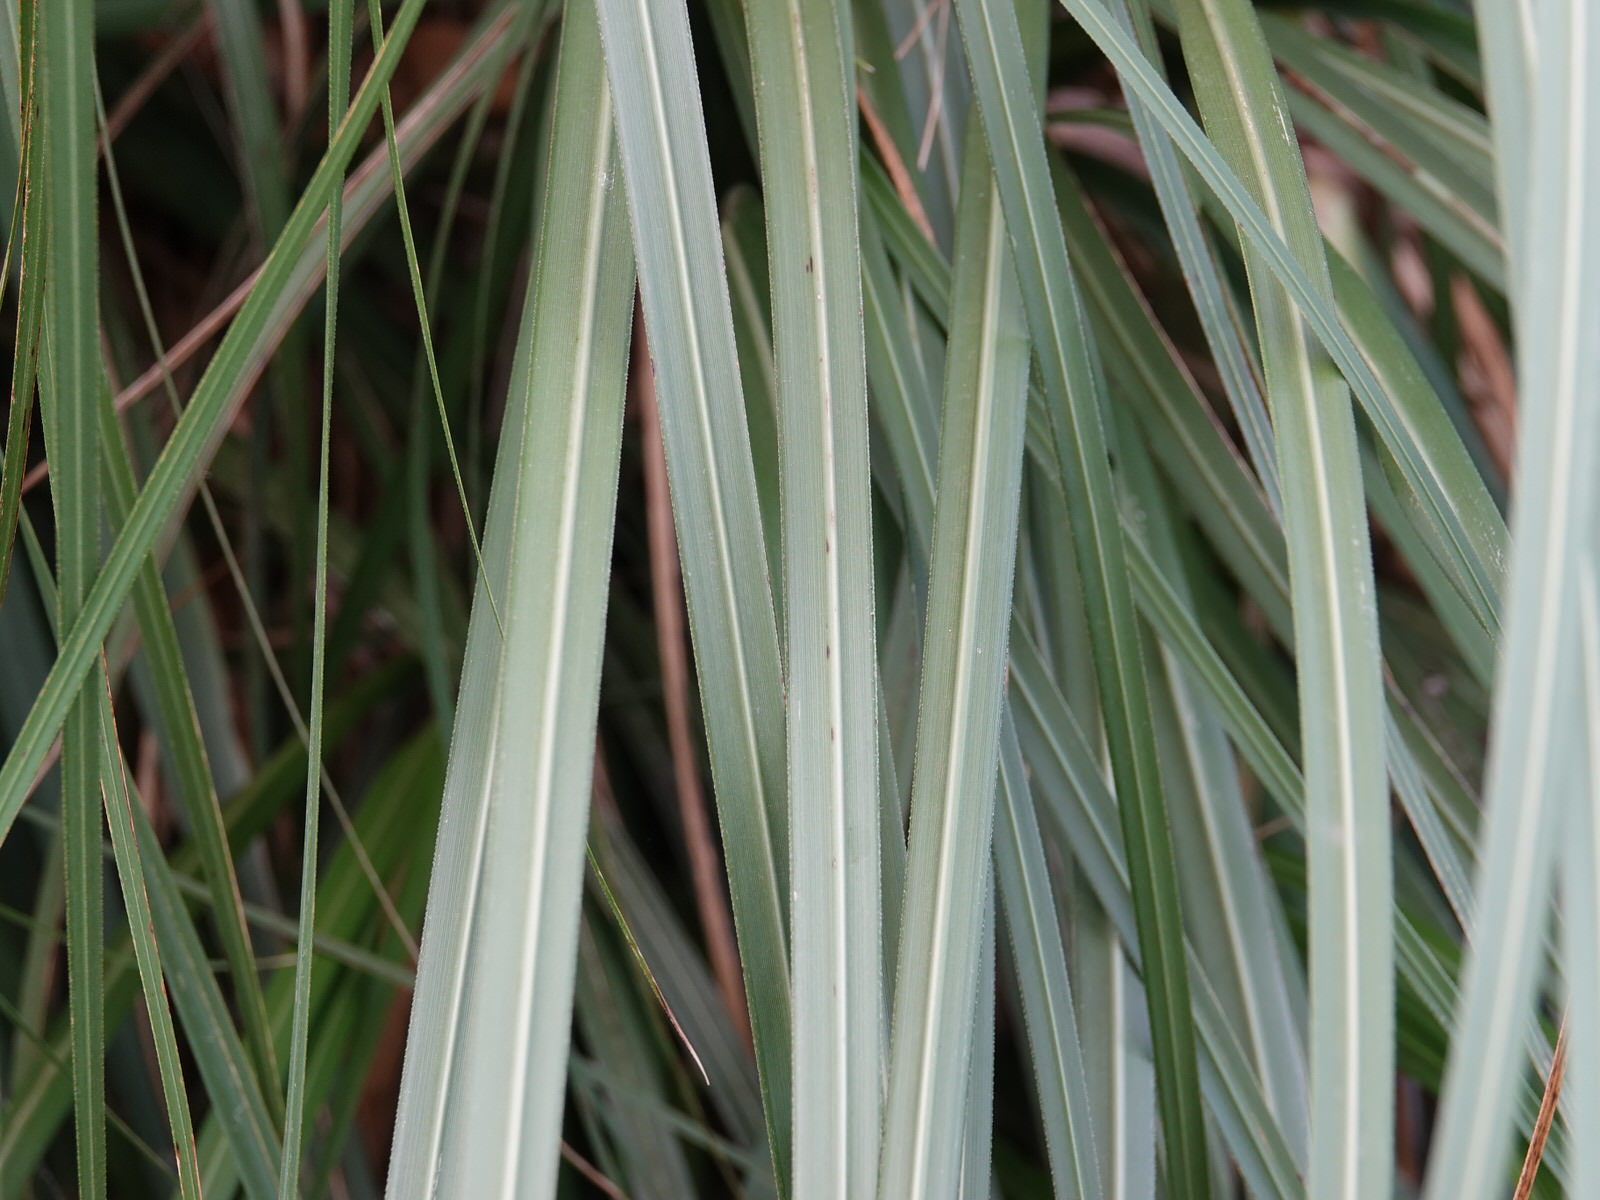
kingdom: Plantae
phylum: Tracheophyta
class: Liliopsida
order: Poales
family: Poaceae
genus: Cortaderia
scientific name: Cortaderia jubata
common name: Purple pampas grass
